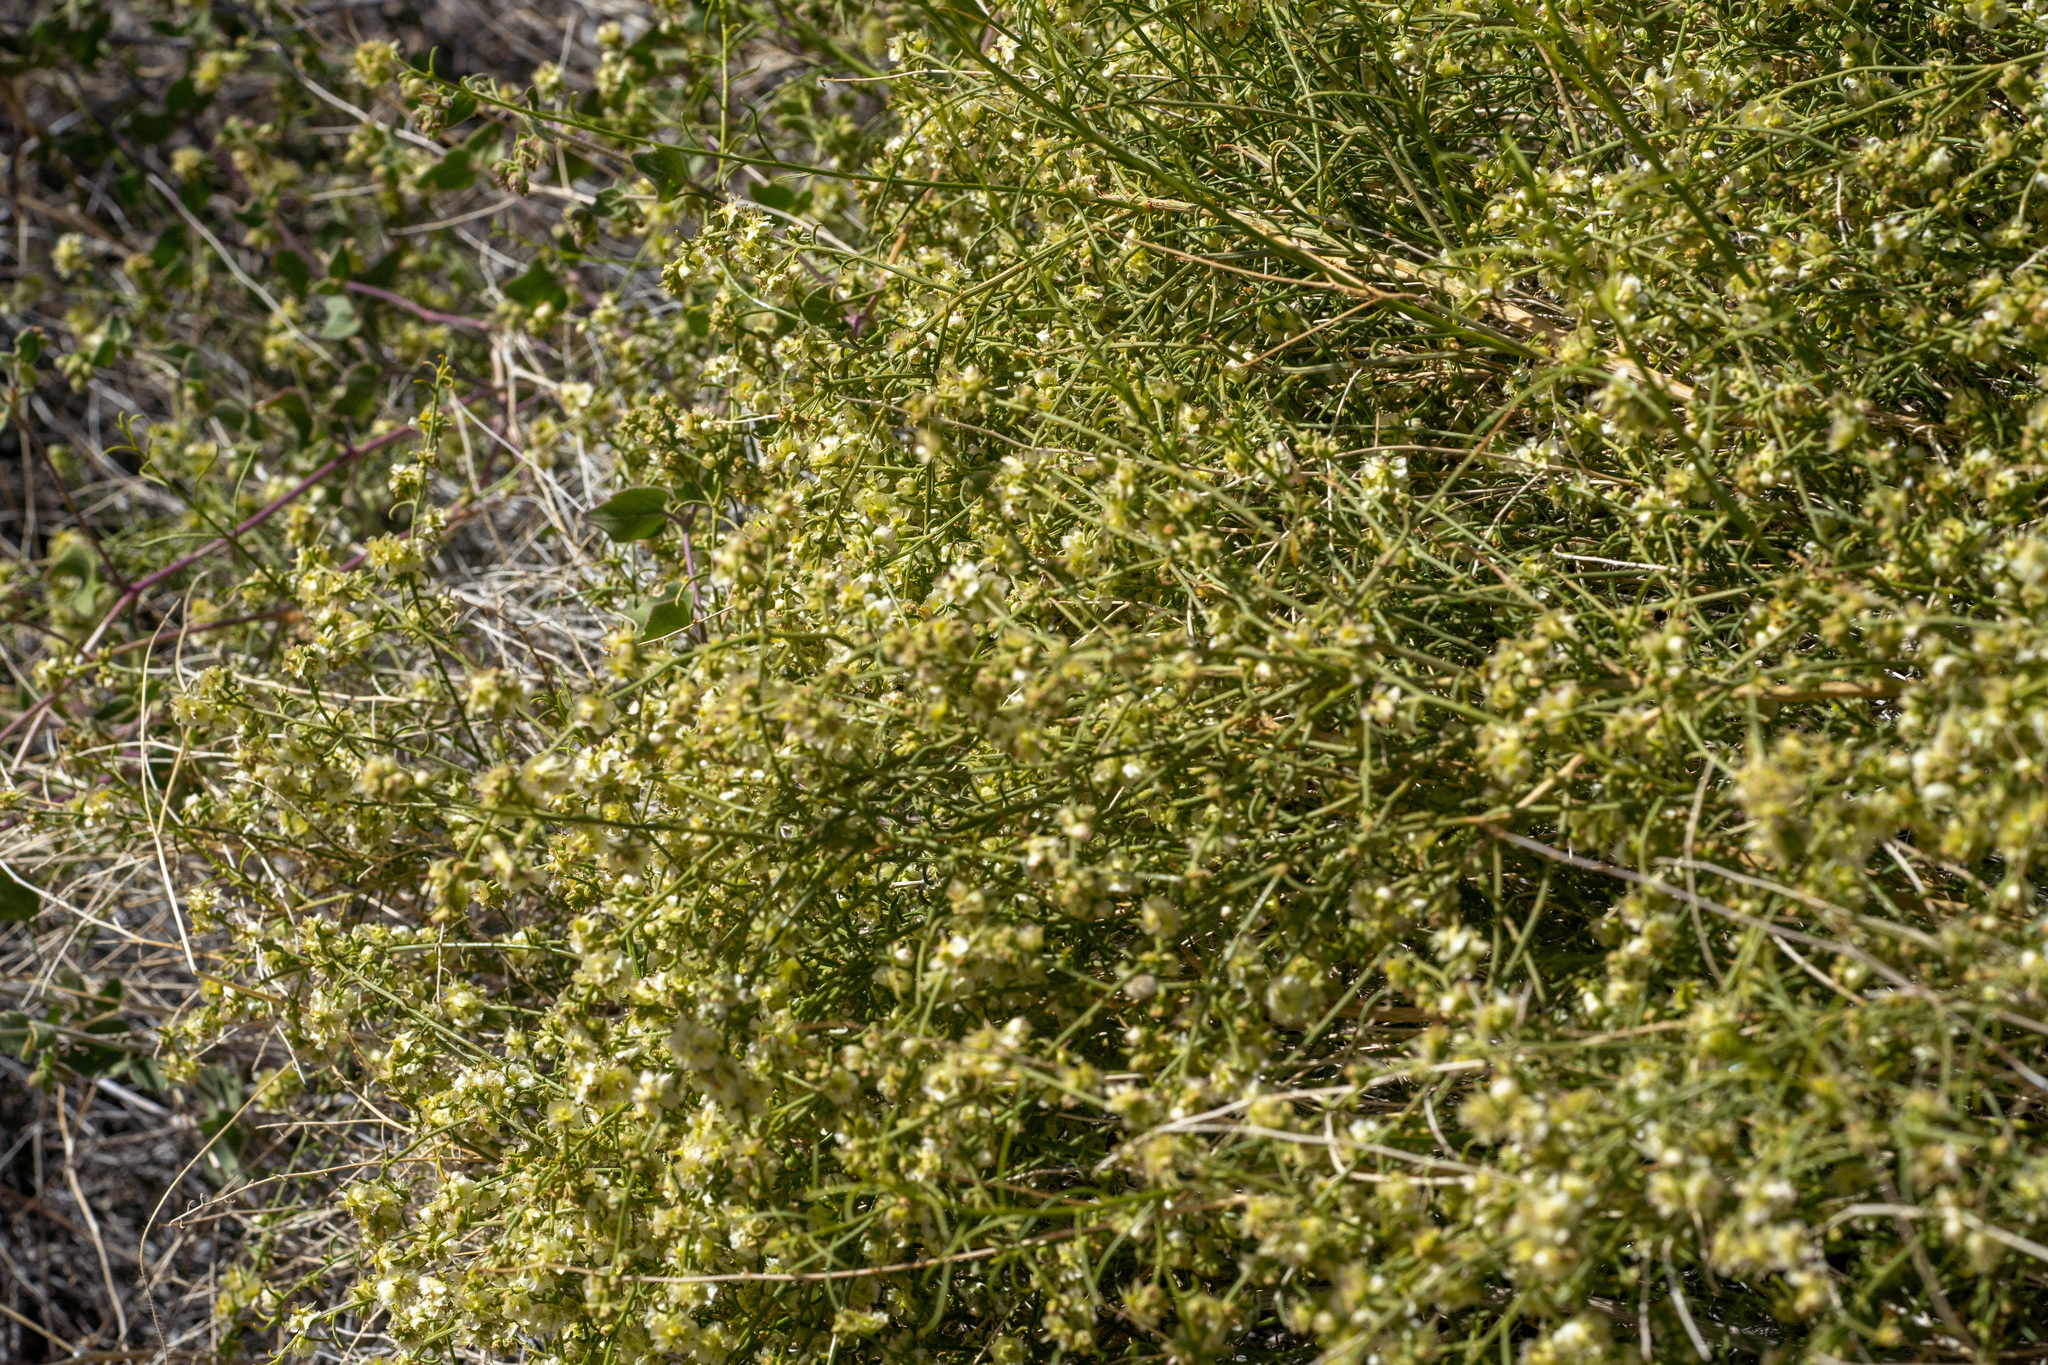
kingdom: Plantae
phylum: Tracheophyta
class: Magnoliopsida
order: Asterales
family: Asteraceae
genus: Ambrosia
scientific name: Ambrosia salsola
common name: Burrobrush
